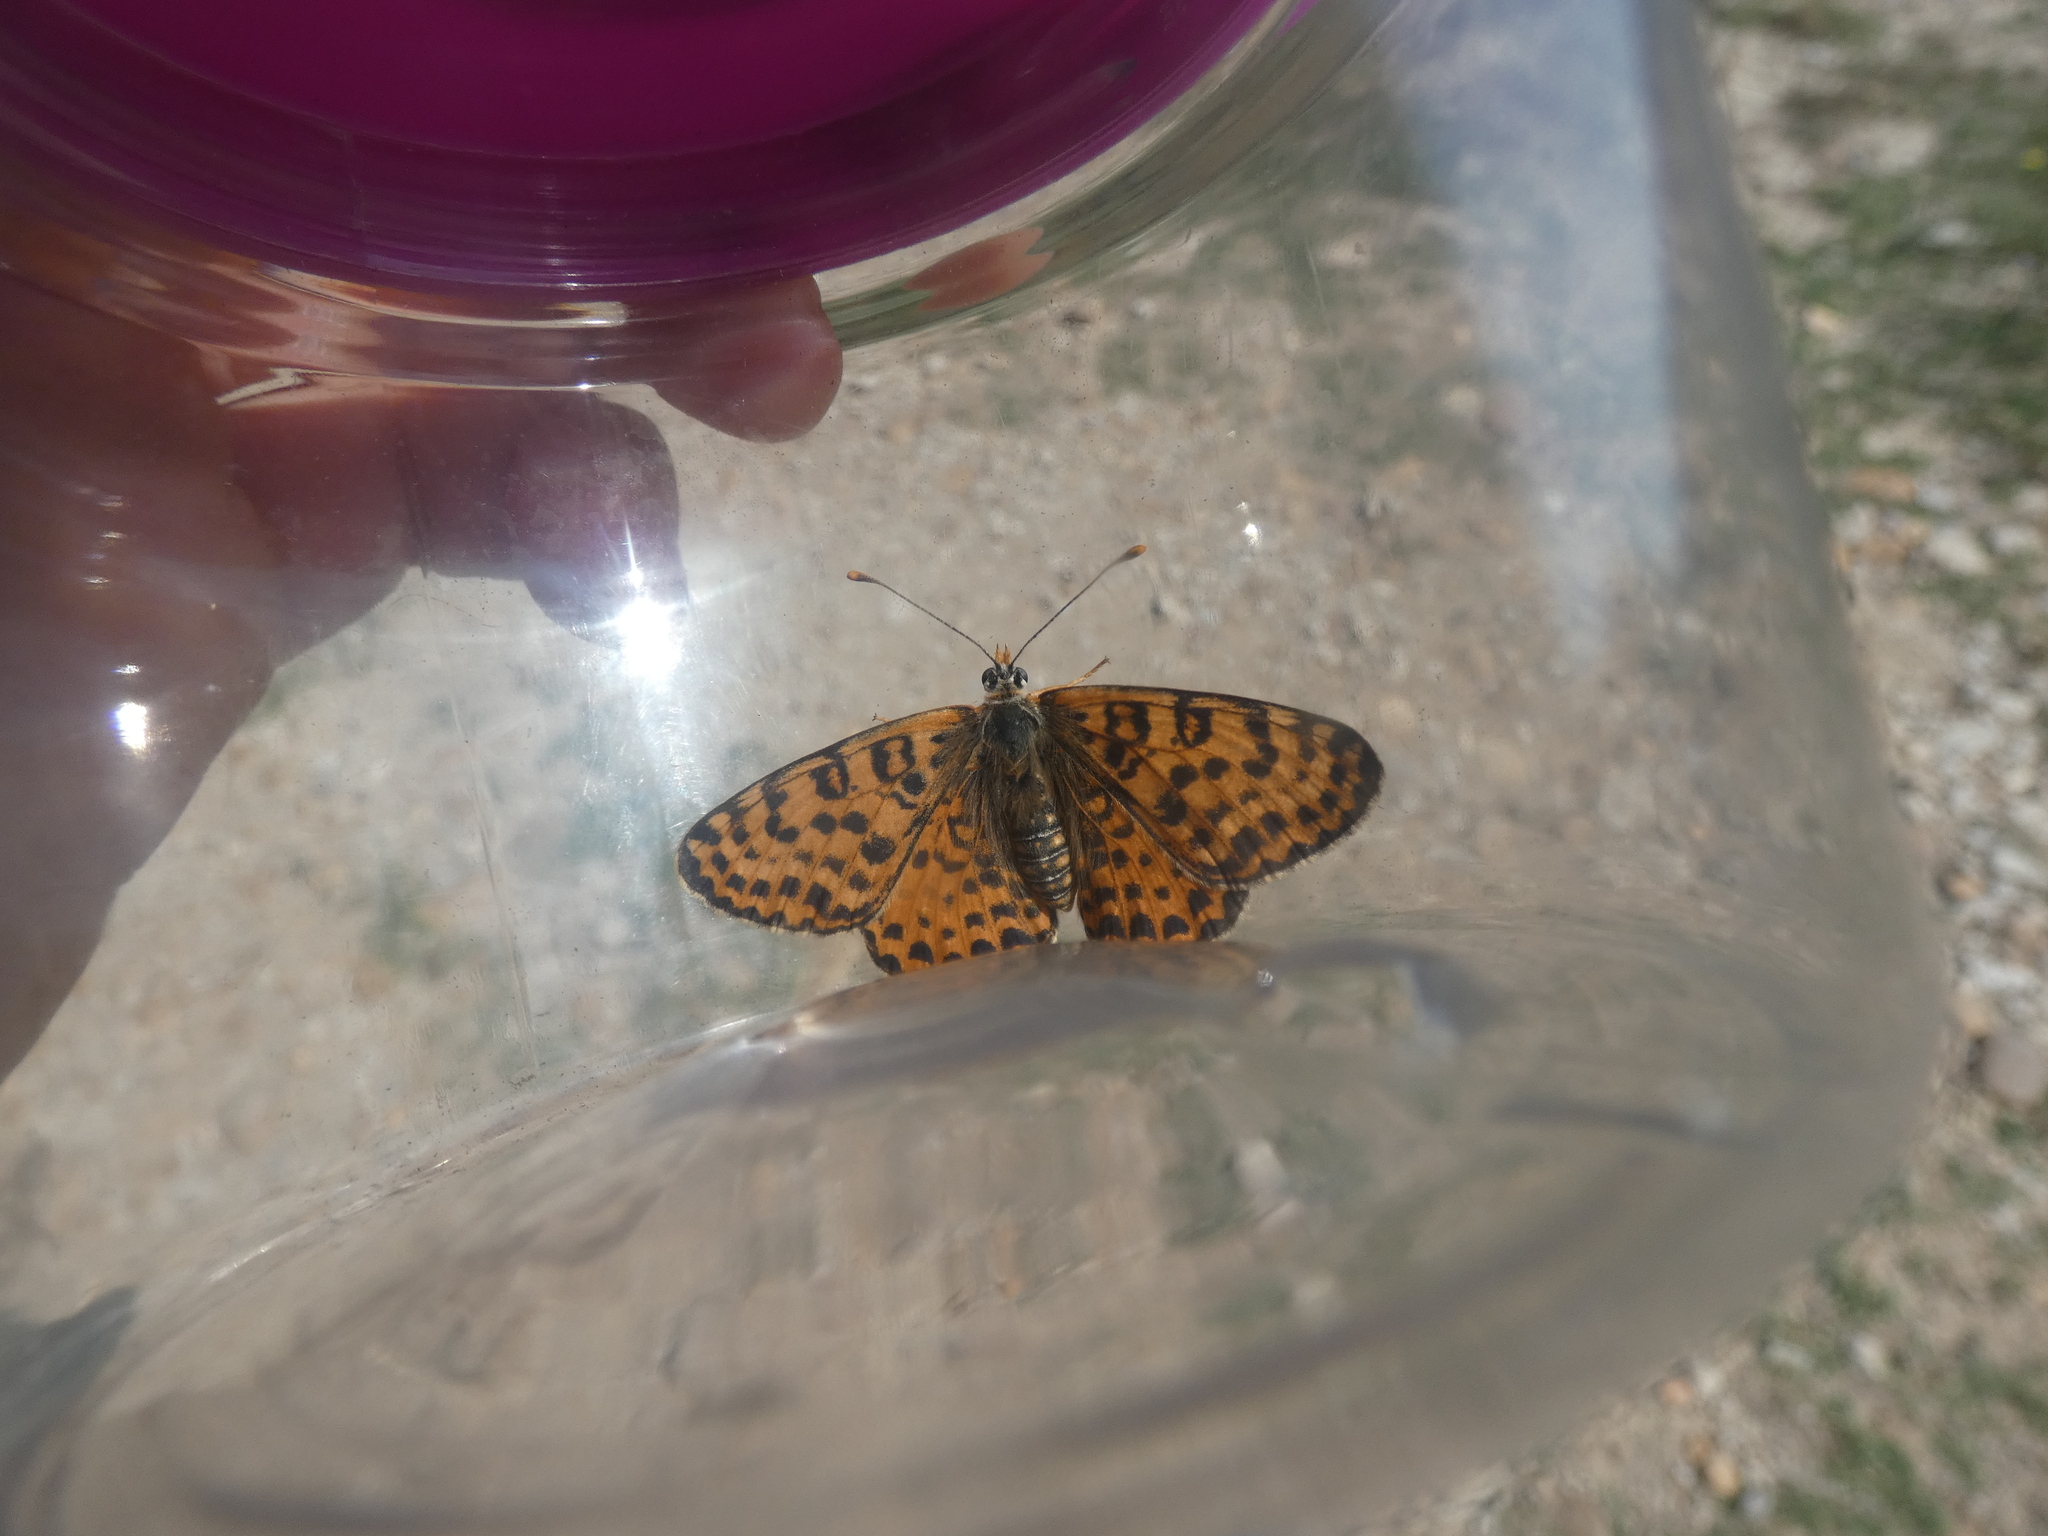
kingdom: Animalia
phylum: Arthropoda
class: Insecta
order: Lepidoptera
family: Nymphalidae
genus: Melitaea
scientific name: Melitaea didyma
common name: Spotted fritillary
